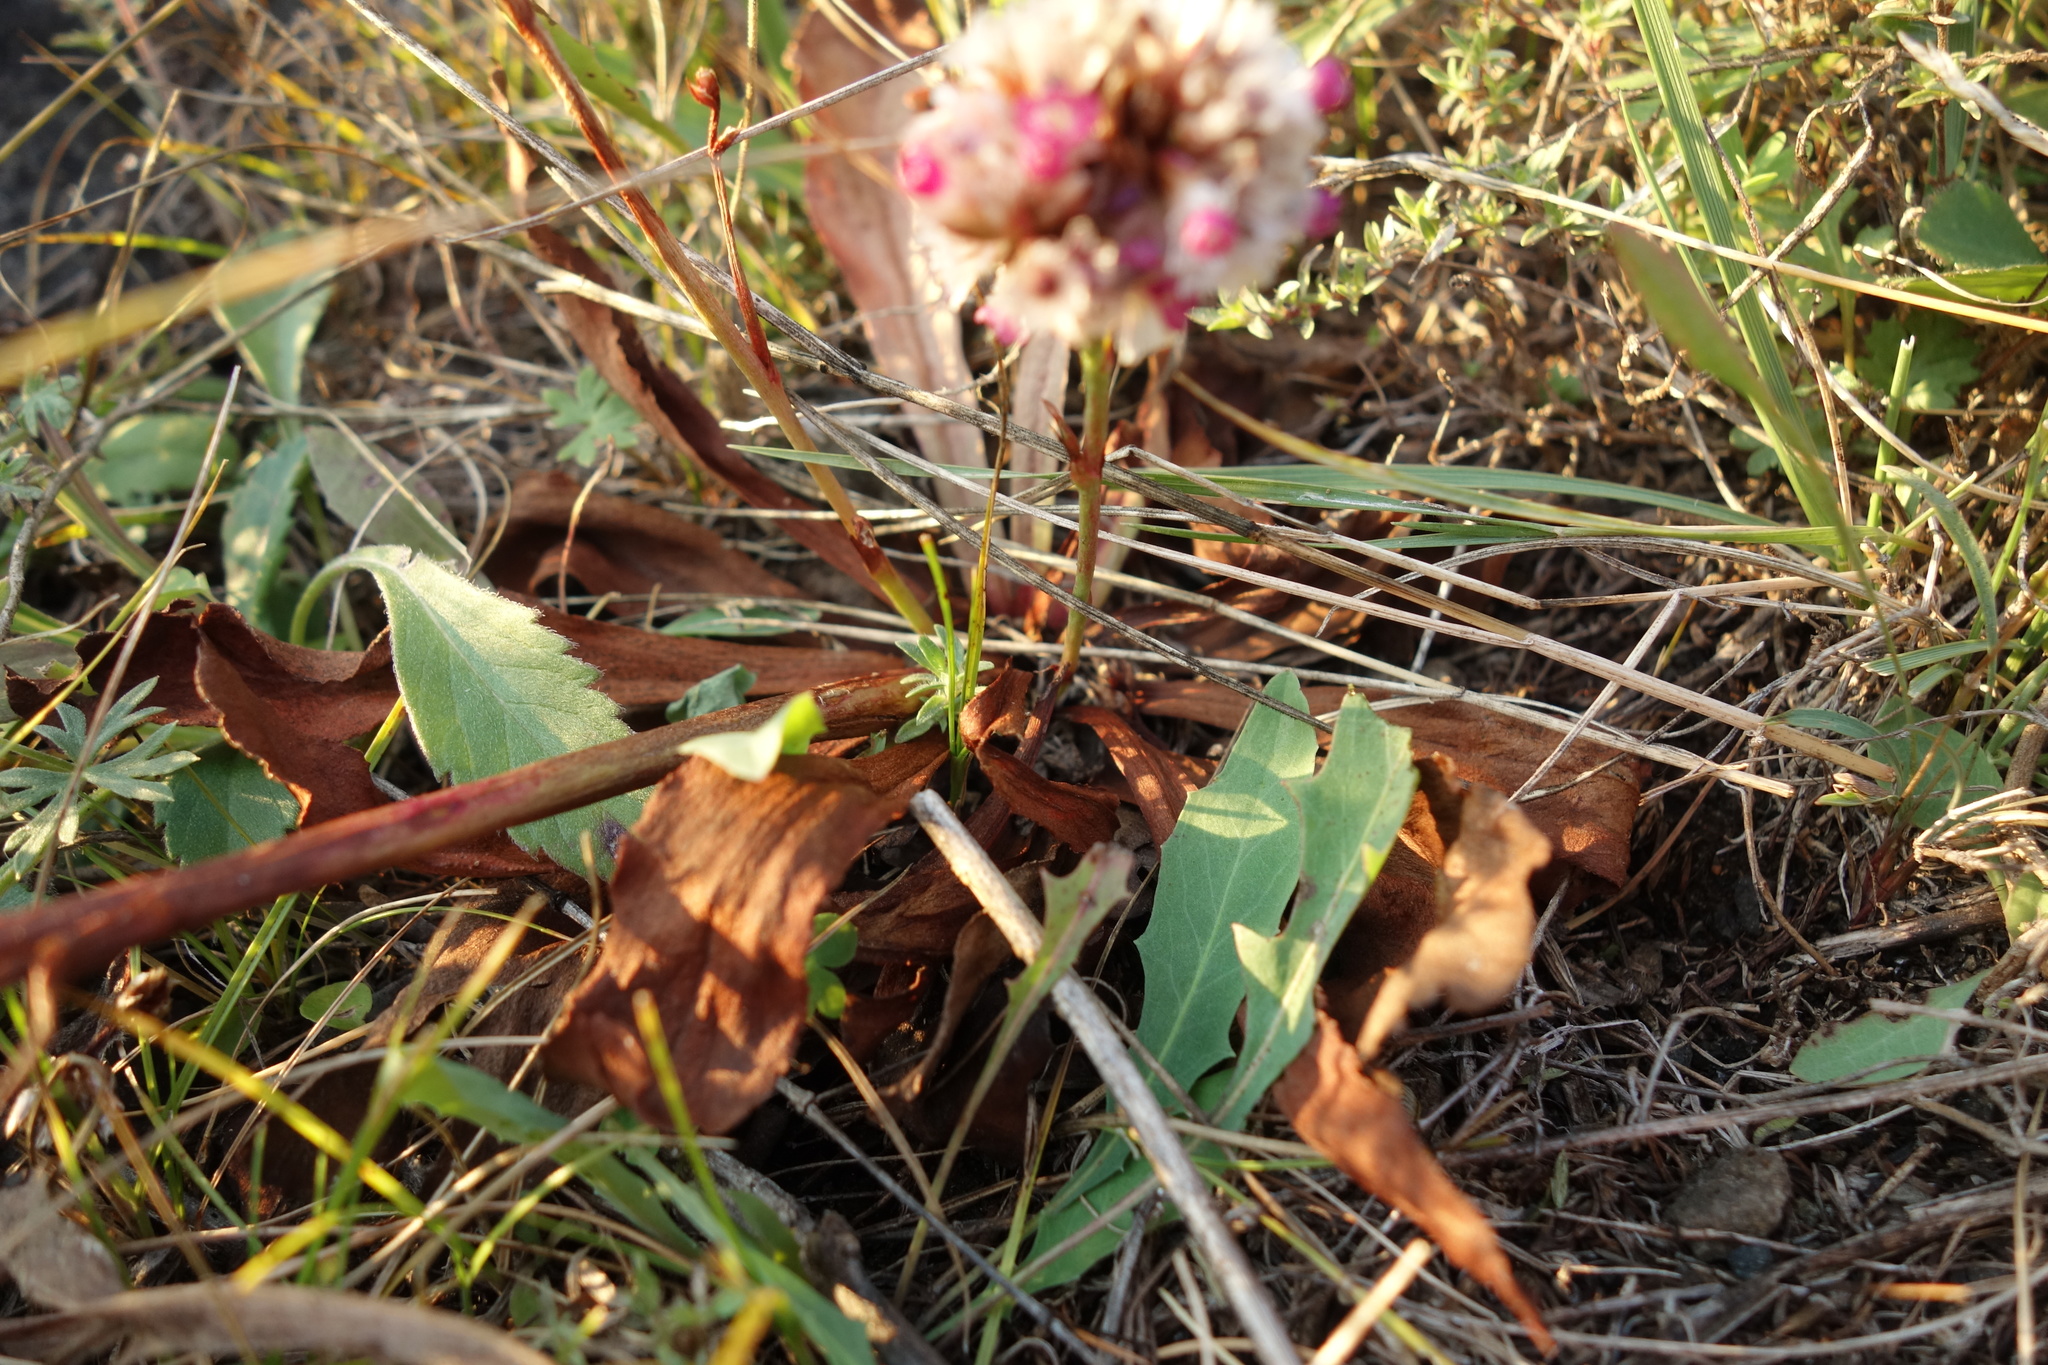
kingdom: Plantae
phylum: Tracheophyta
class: Magnoliopsida
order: Caryophyllales
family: Plumbaginaceae
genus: Limonium
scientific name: Limonium flexuosum
